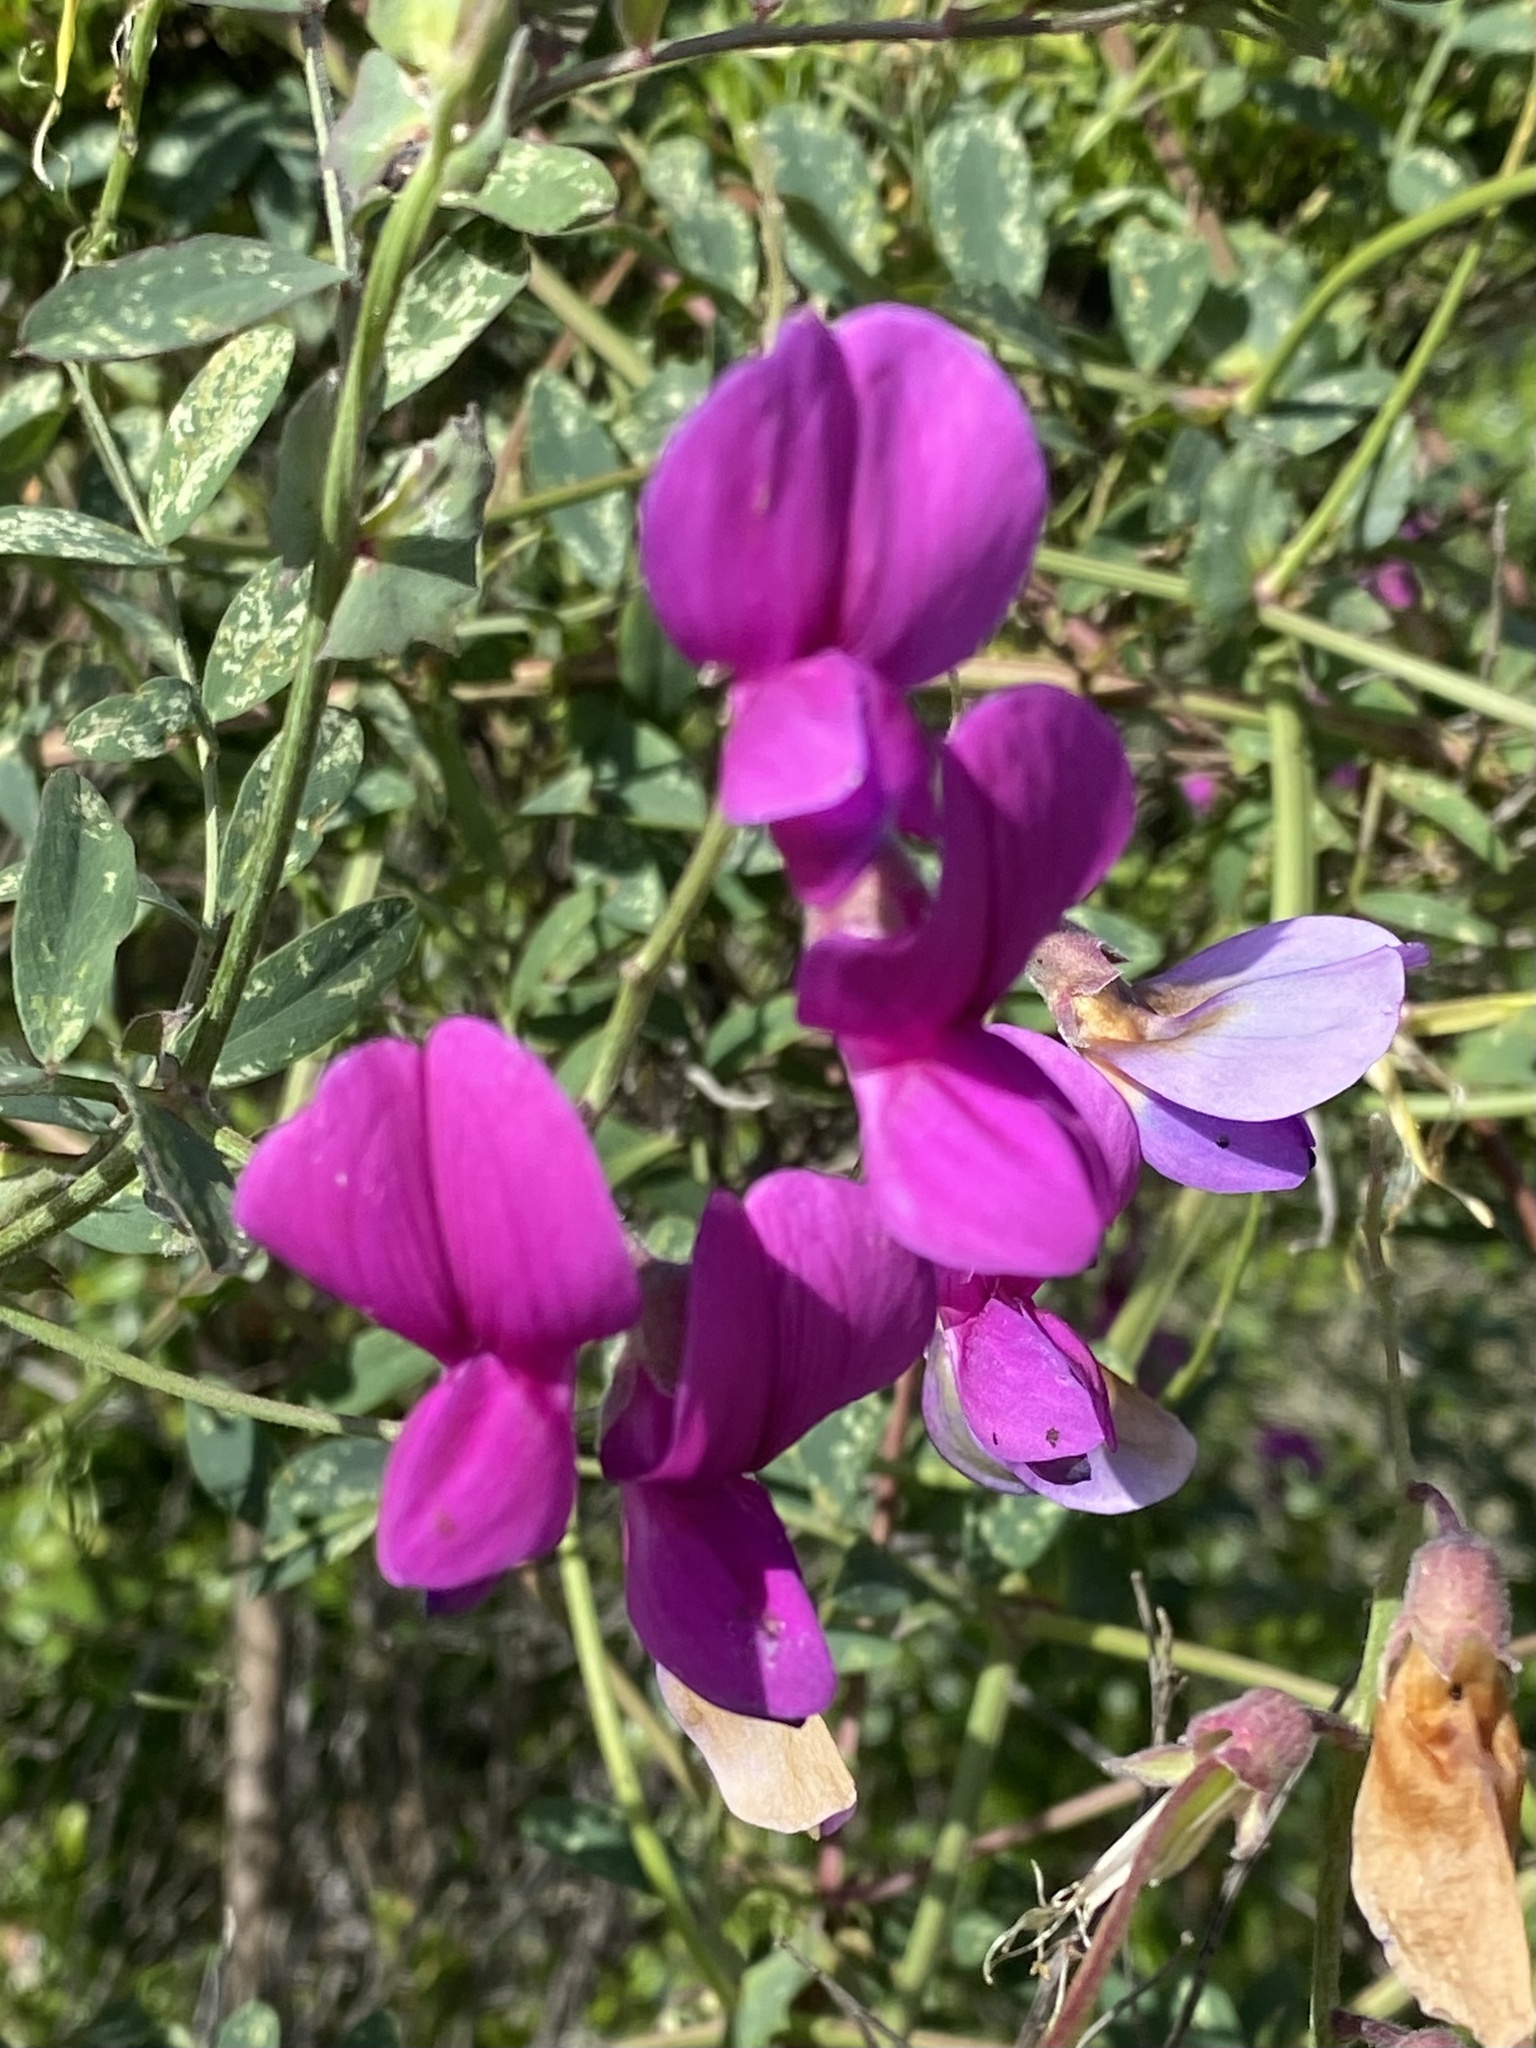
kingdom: Plantae
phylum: Tracheophyta
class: Magnoliopsida
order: Fabales
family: Fabaceae
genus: Lathyrus
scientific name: Lathyrus vestitus
